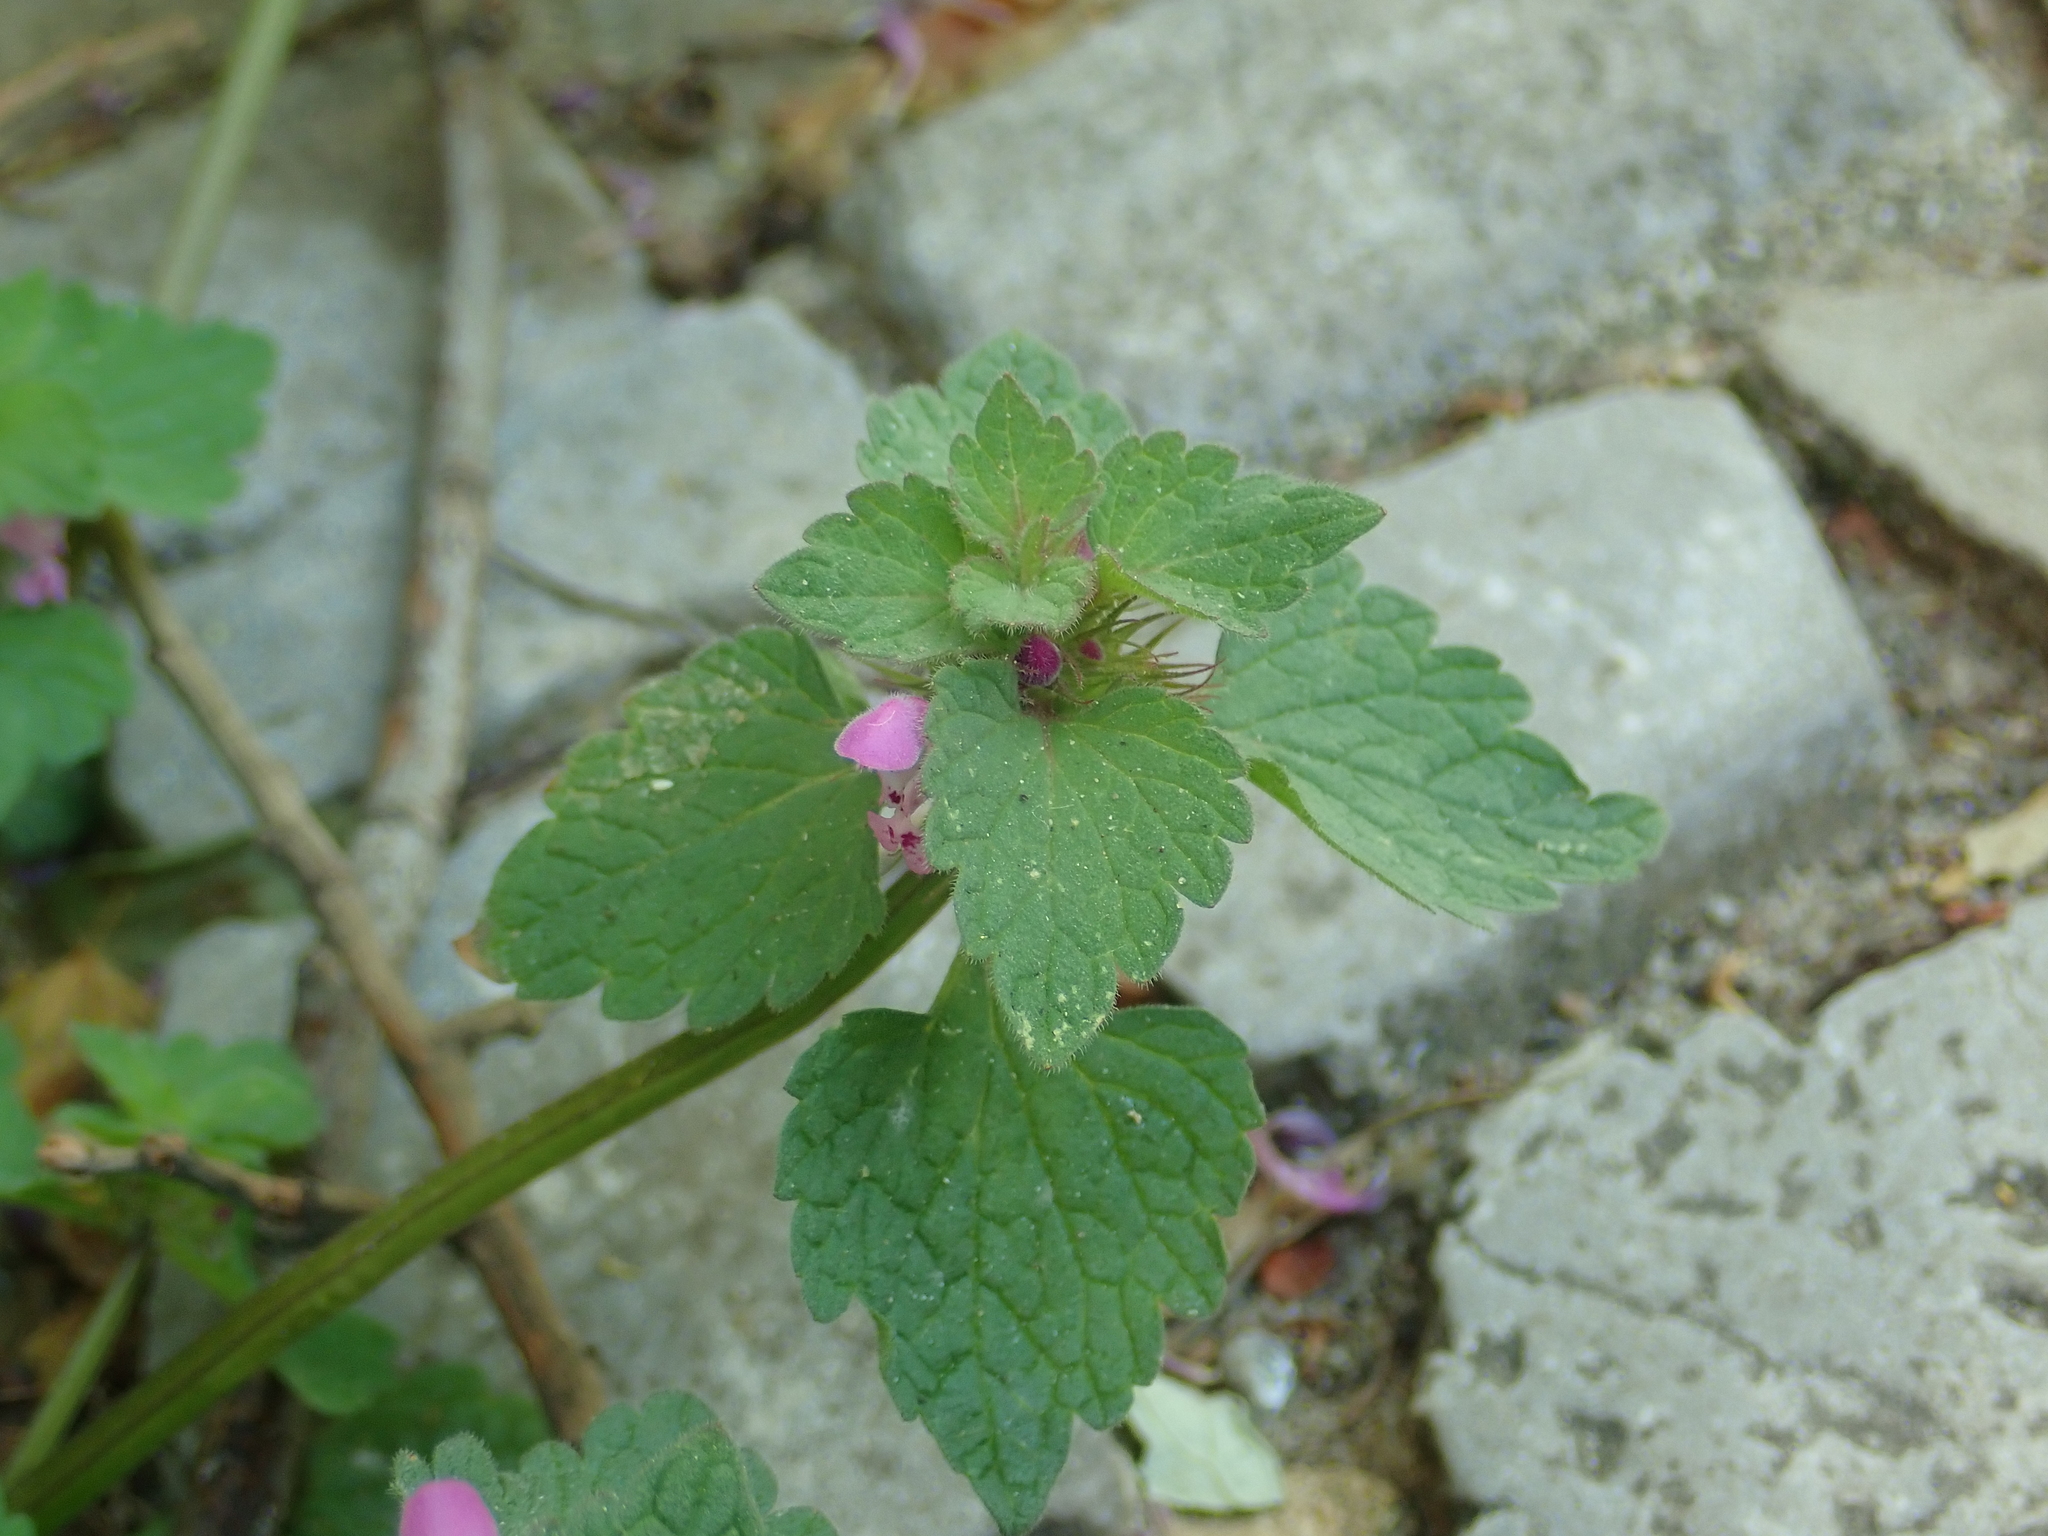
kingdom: Plantae
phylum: Tracheophyta
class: Magnoliopsida
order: Lamiales
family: Lamiaceae
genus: Lamium
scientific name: Lamium purpureum
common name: Red dead-nettle
